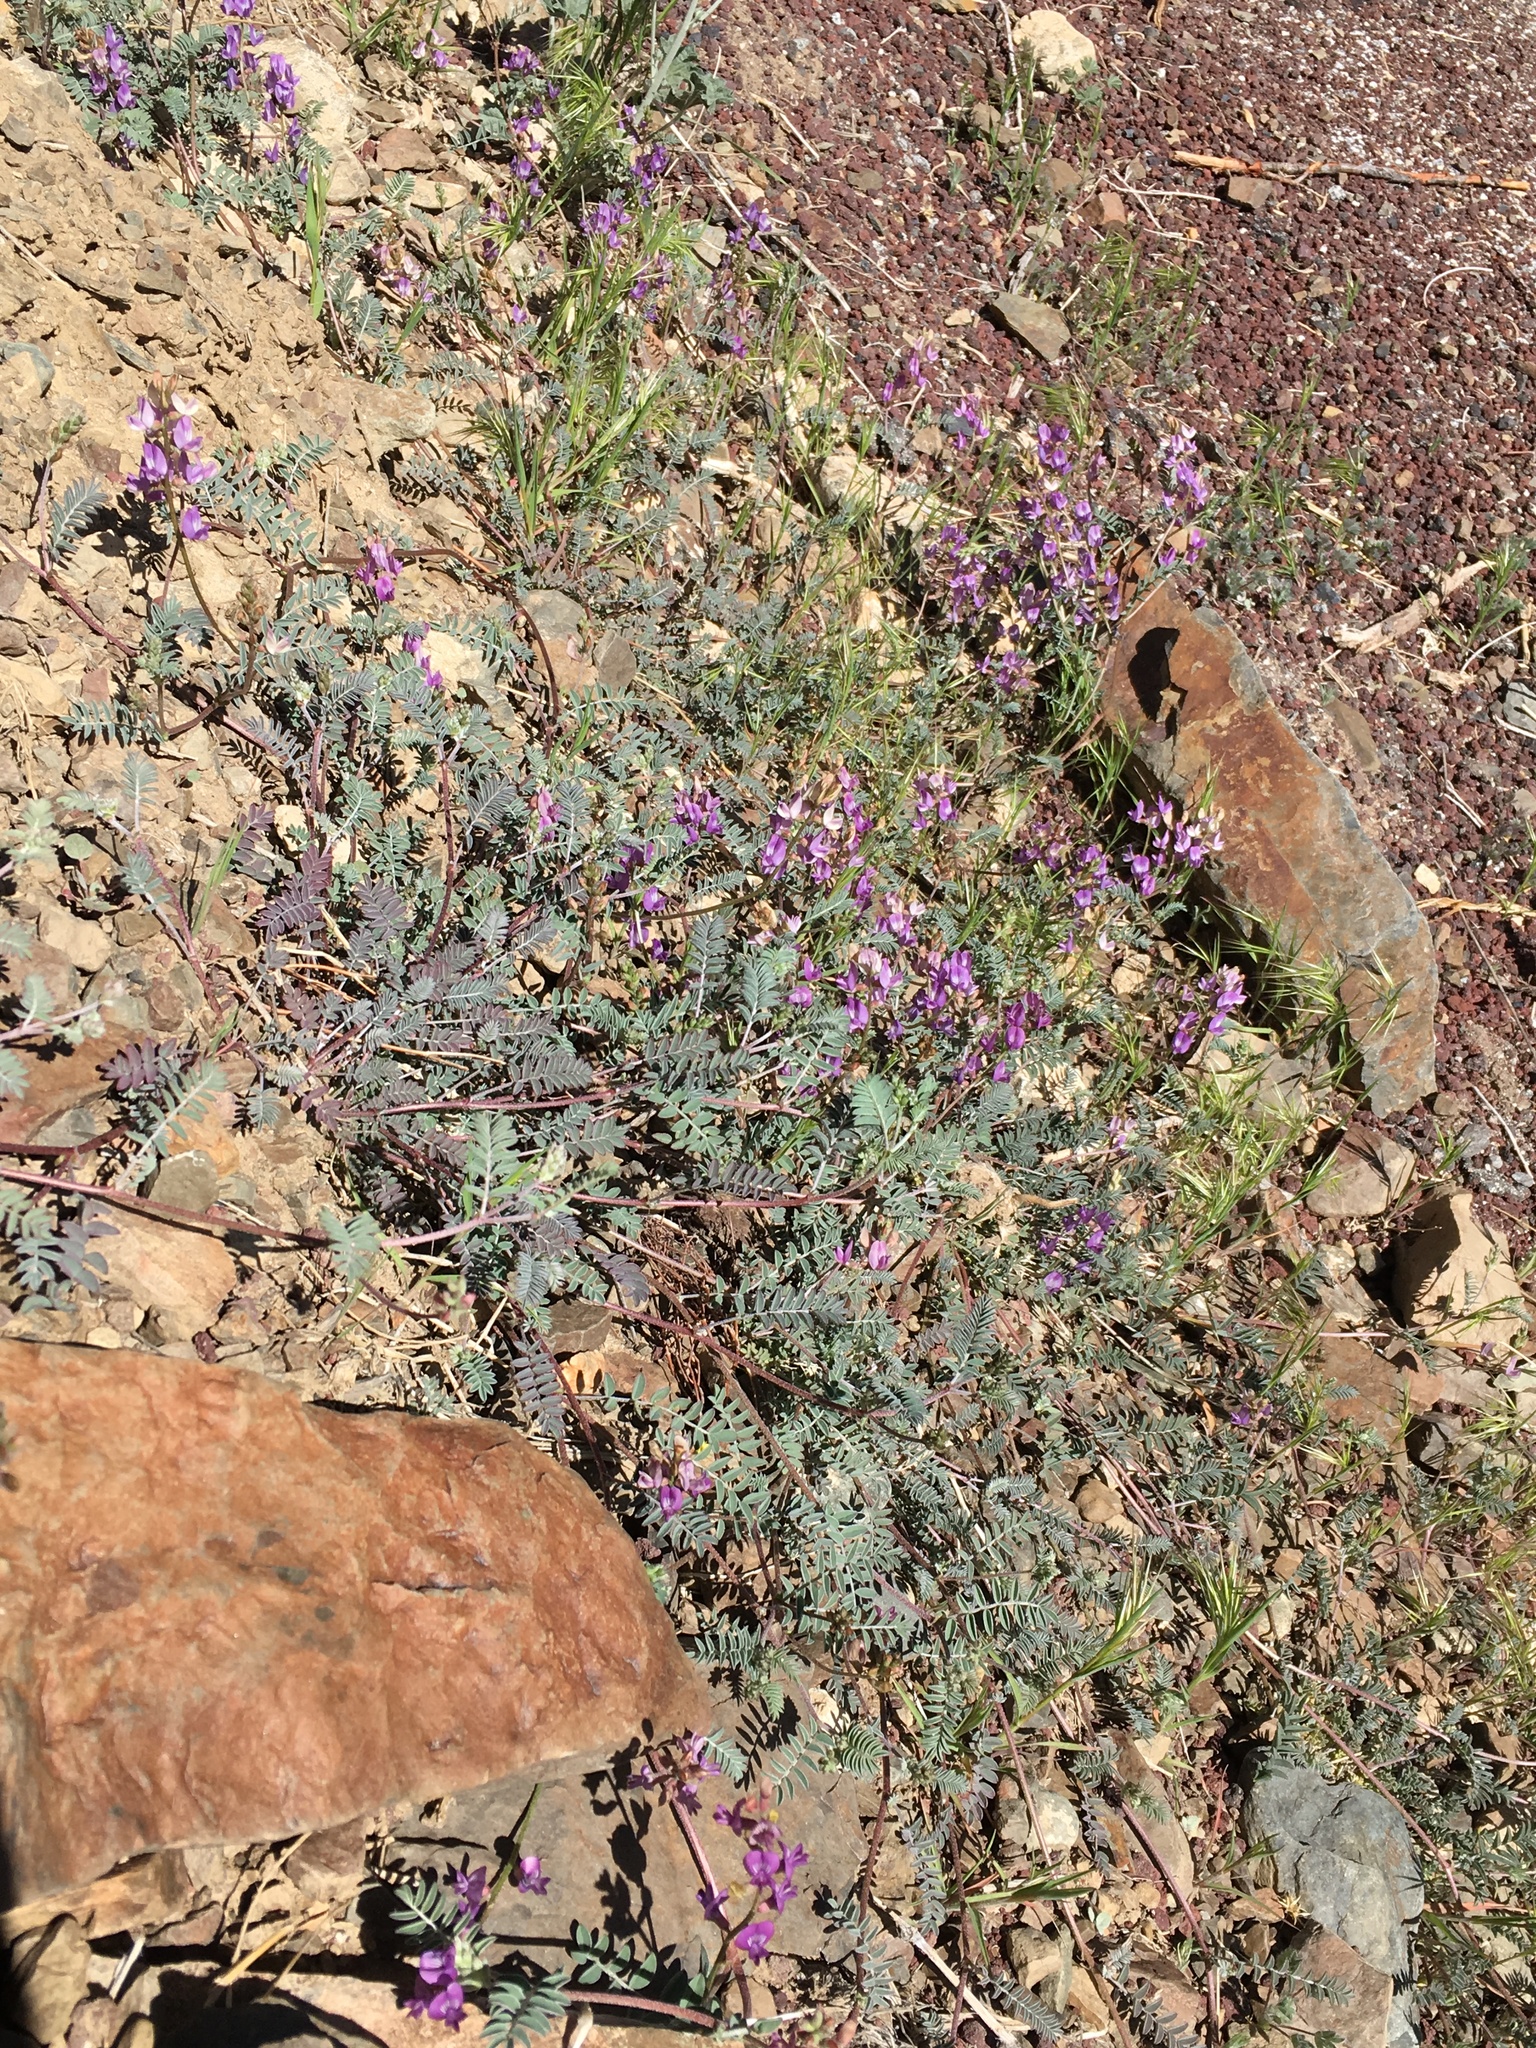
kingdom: Plantae
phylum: Tracheophyta
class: Magnoliopsida
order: Fabales
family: Fabaceae
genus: Astragalus
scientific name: Astragalus inyoensis
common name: Inyo locoweed
